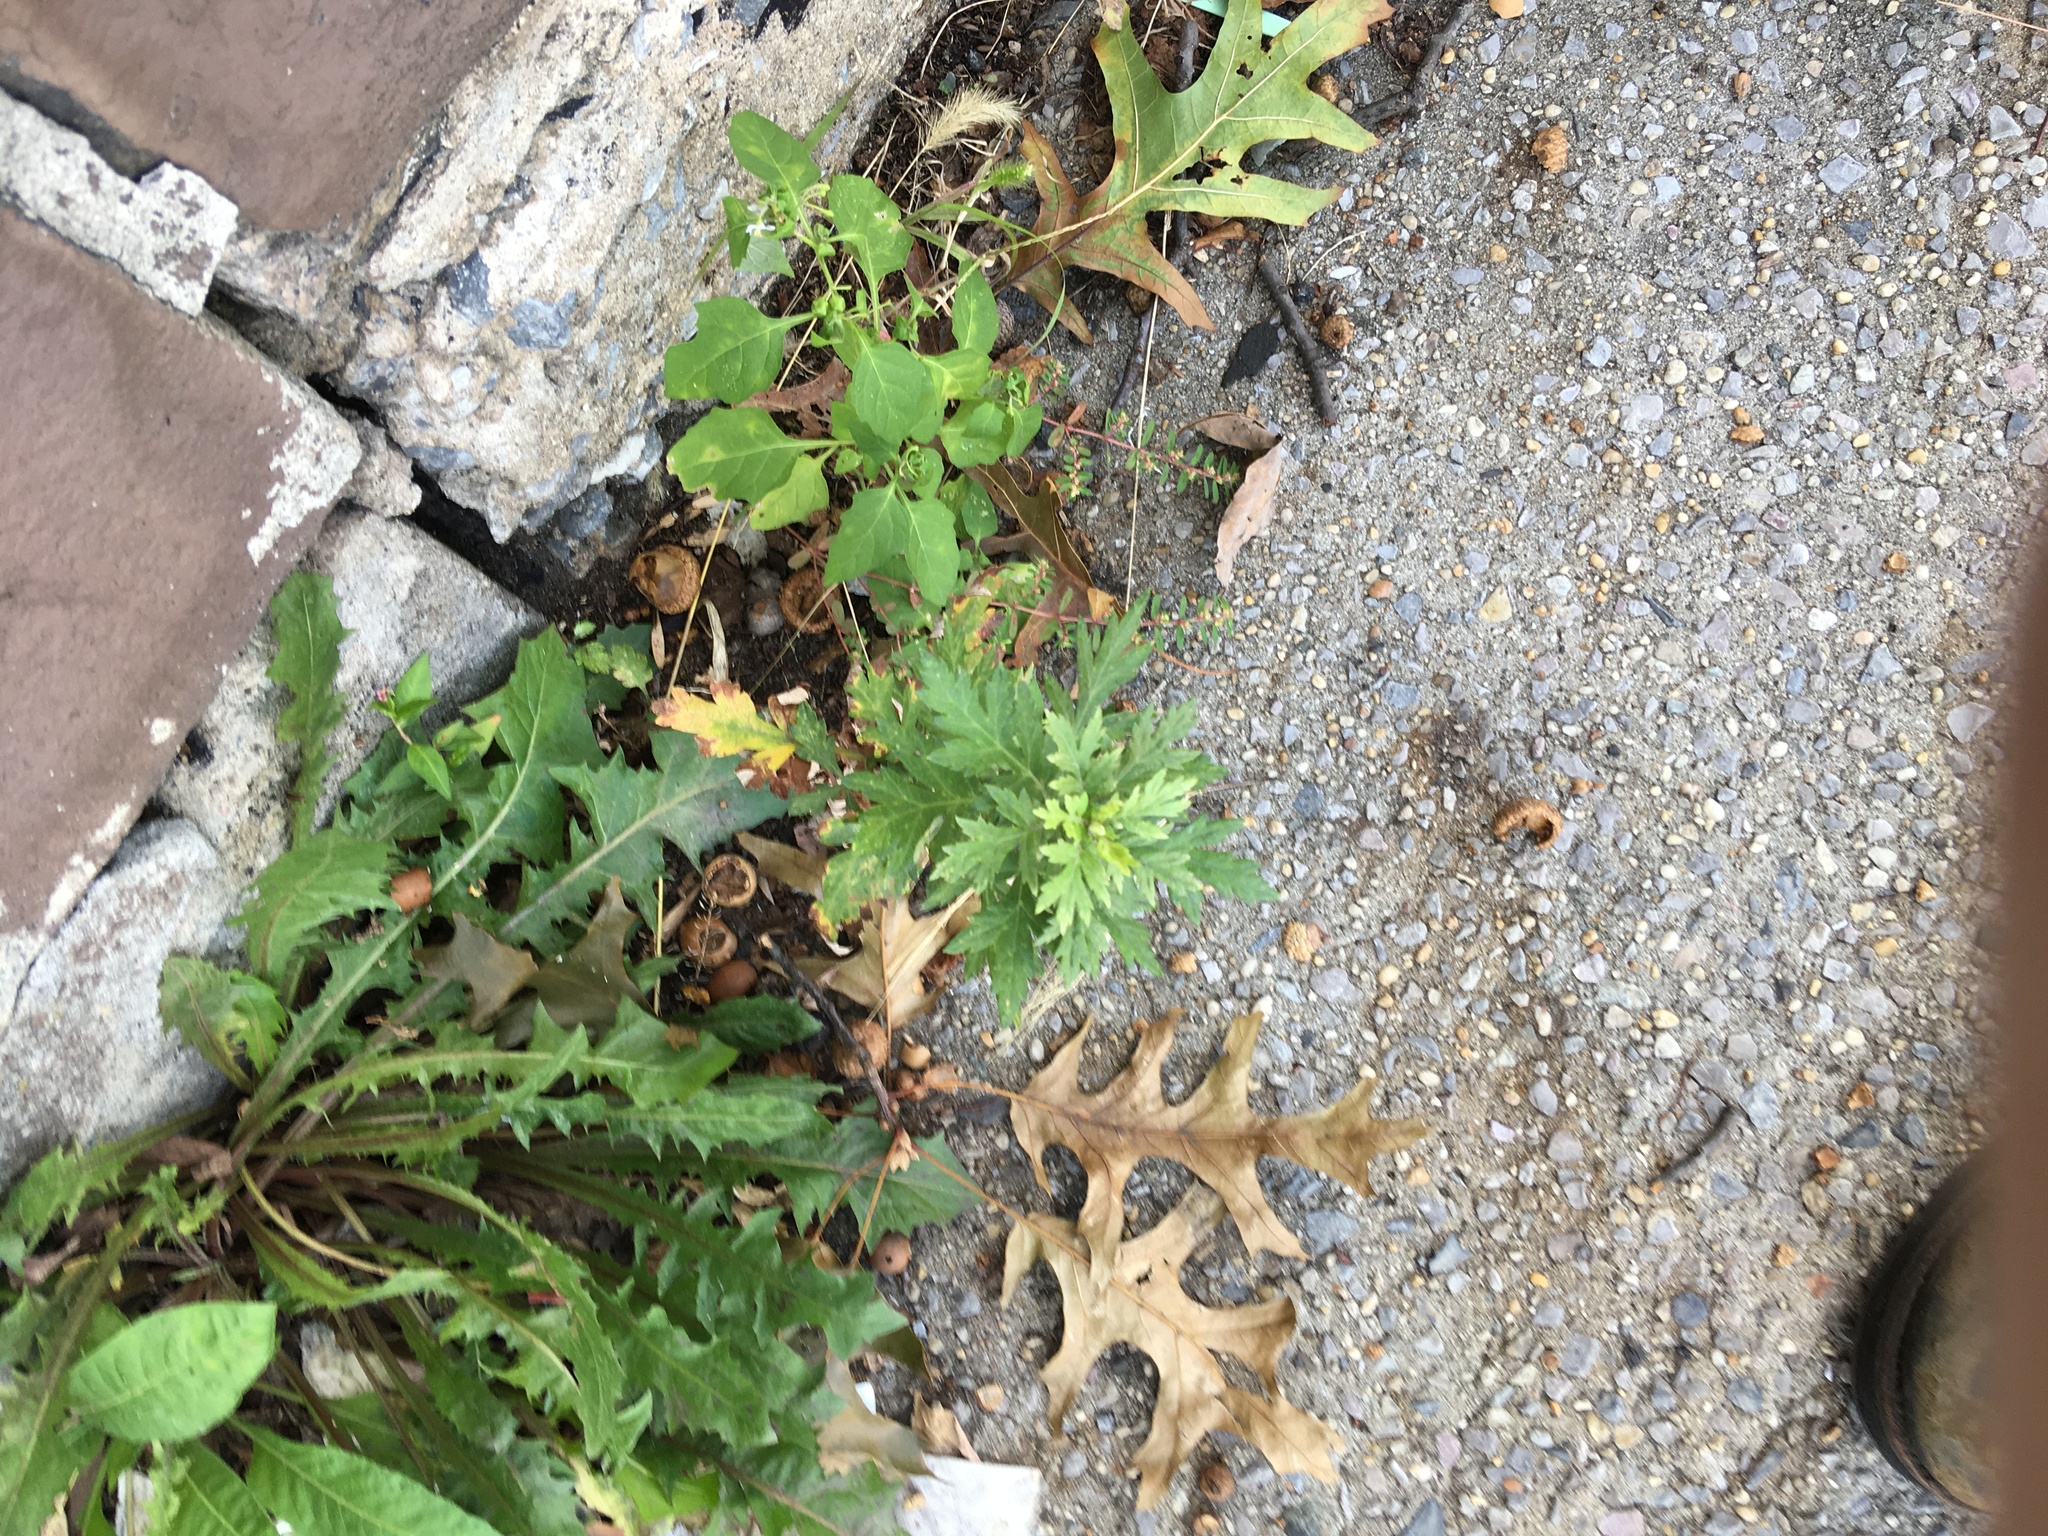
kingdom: Plantae
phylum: Tracheophyta
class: Magnoliopsida
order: Asterales
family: Asteraceae
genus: Artemisia
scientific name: Artemisia vulgaris
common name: Mugwort
